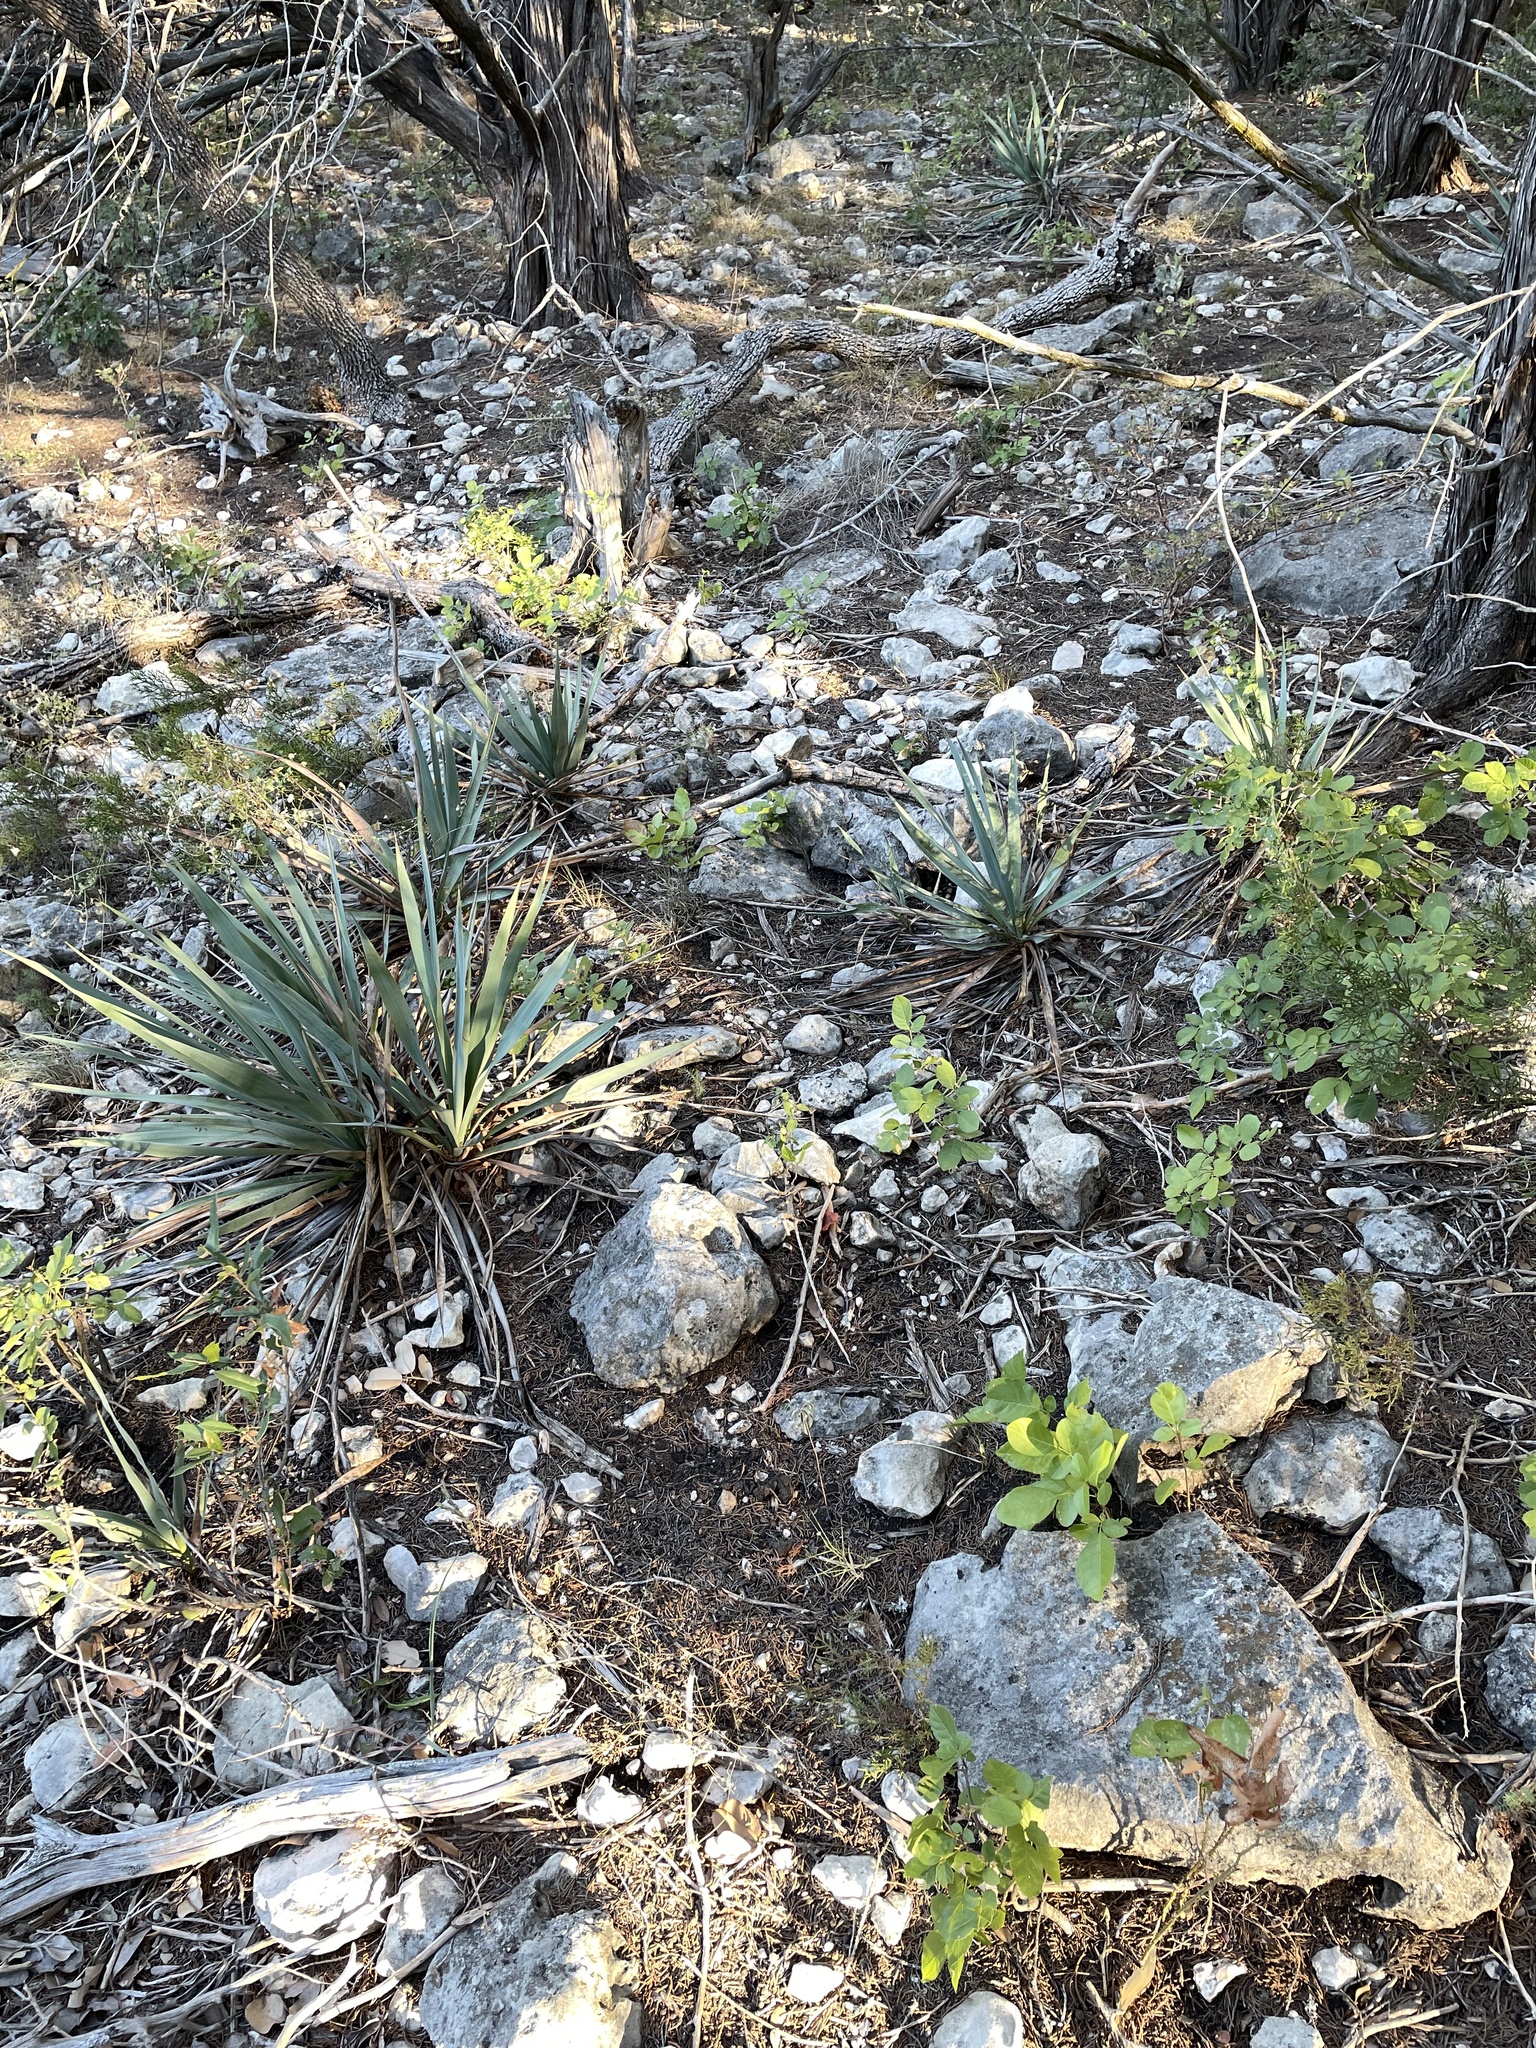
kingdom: Plantae
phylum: Tracheophyta
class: Liliopsida
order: Asparagales
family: Asparagaceae
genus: Yucca
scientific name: Yucca pallida
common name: Pale leaf yucca
